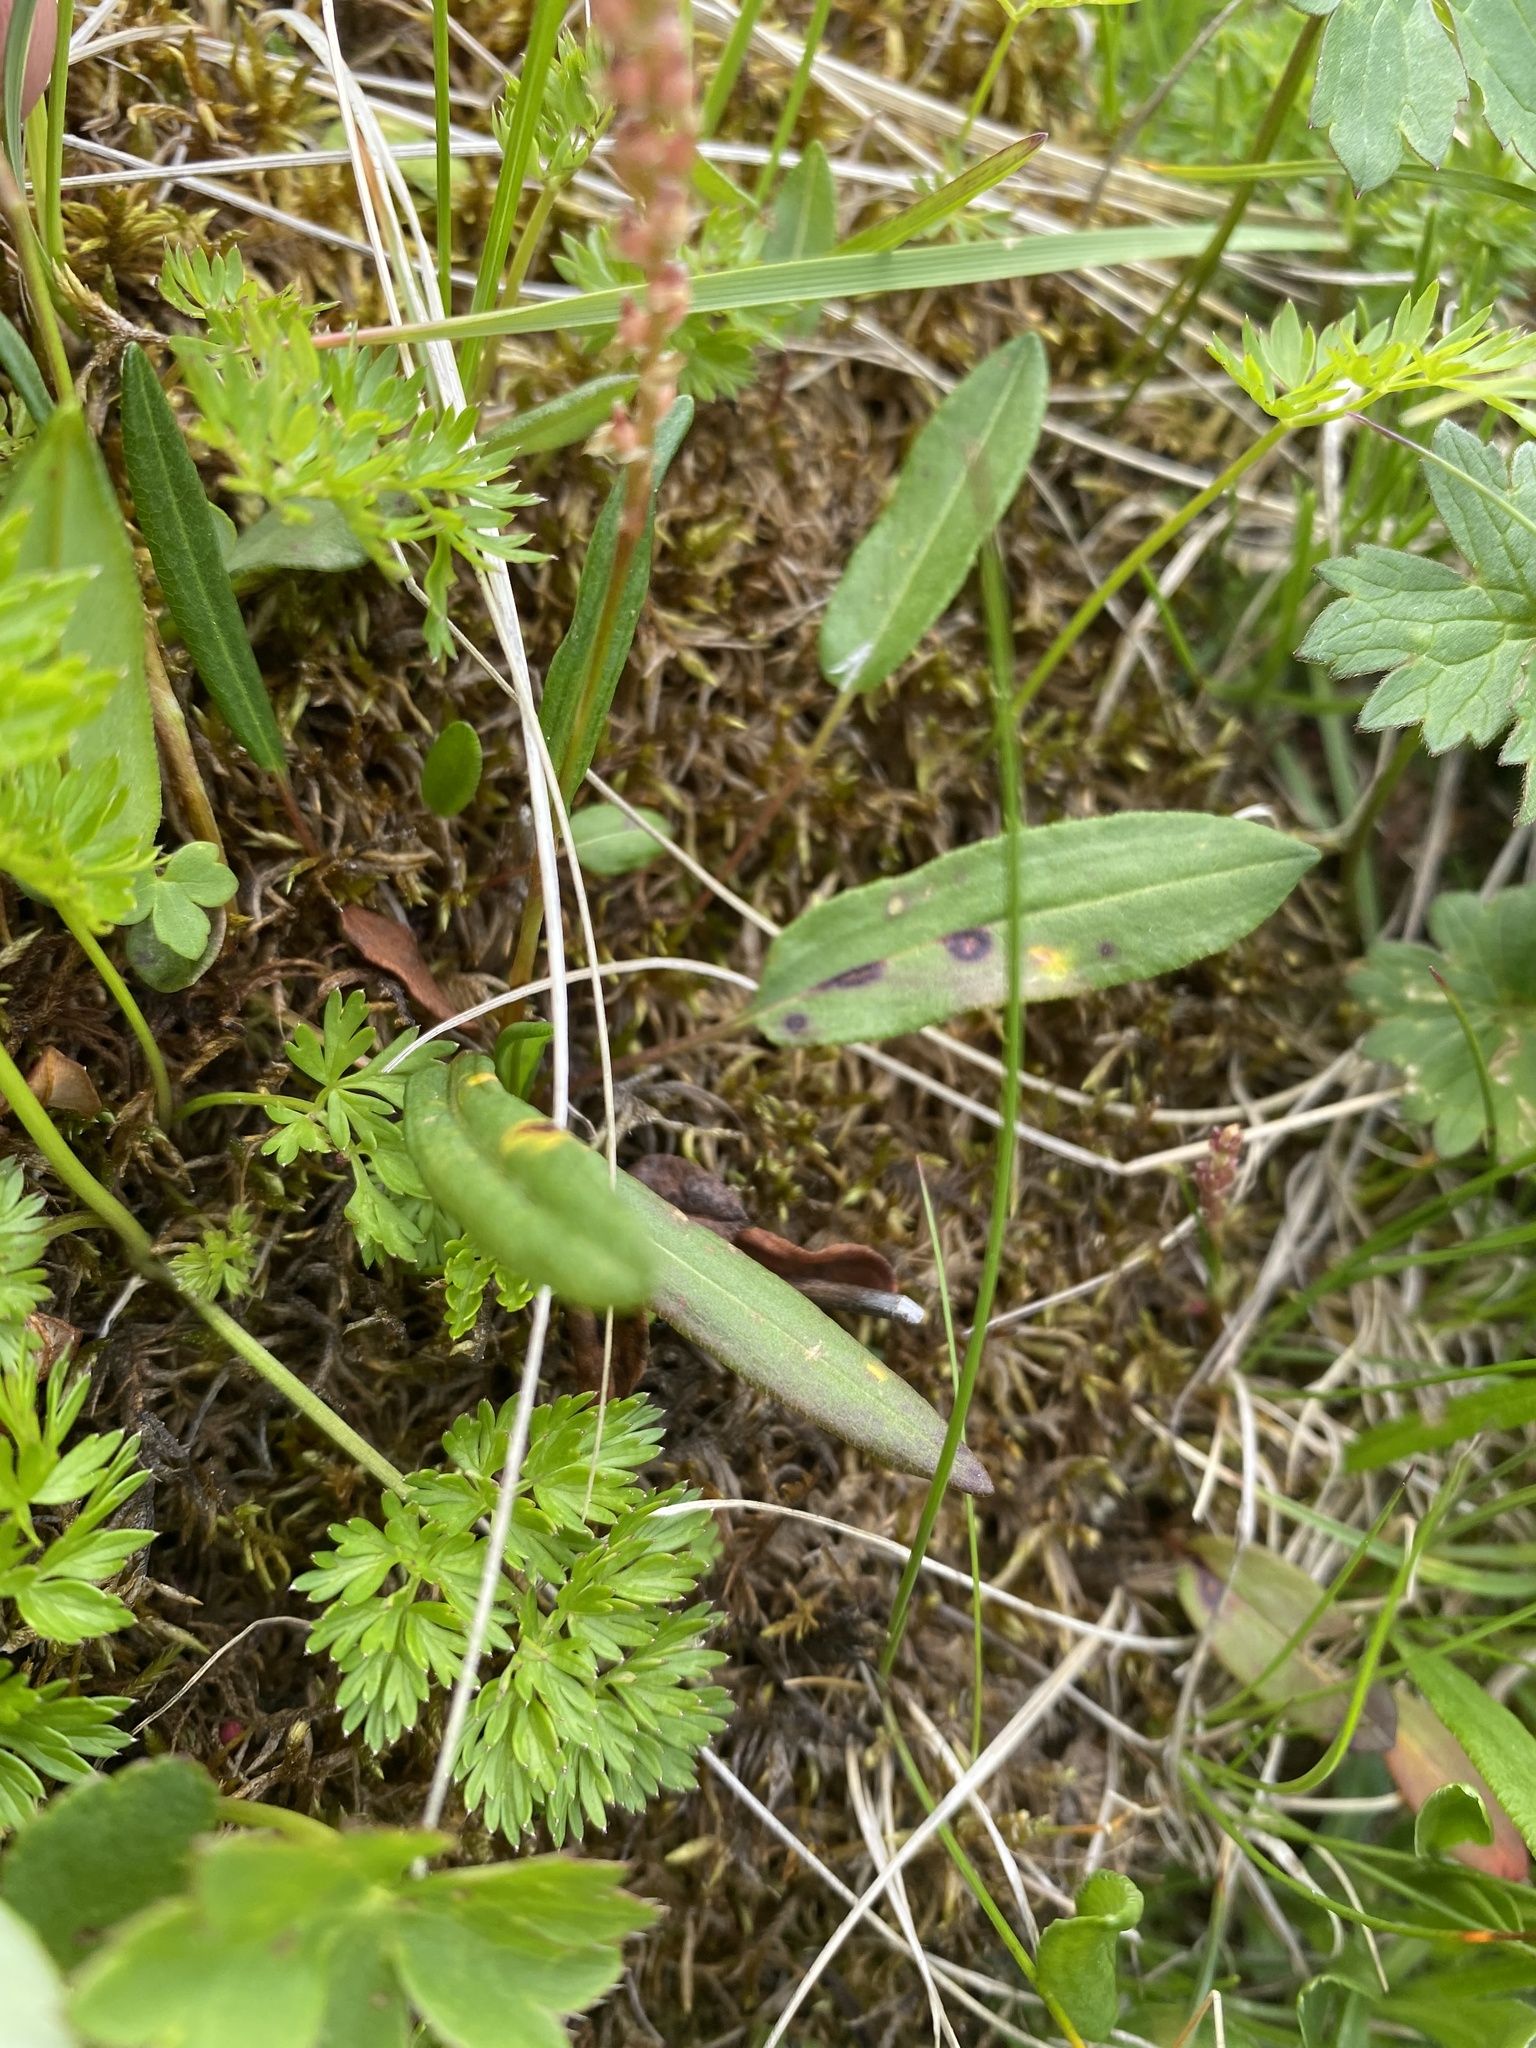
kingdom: Plantae
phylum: Tracheophyta
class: Magnoliopsida
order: Caryophyllales
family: Polygonaceae
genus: Bistorta
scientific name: Bistorta vivipara
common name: Alpine bistort
